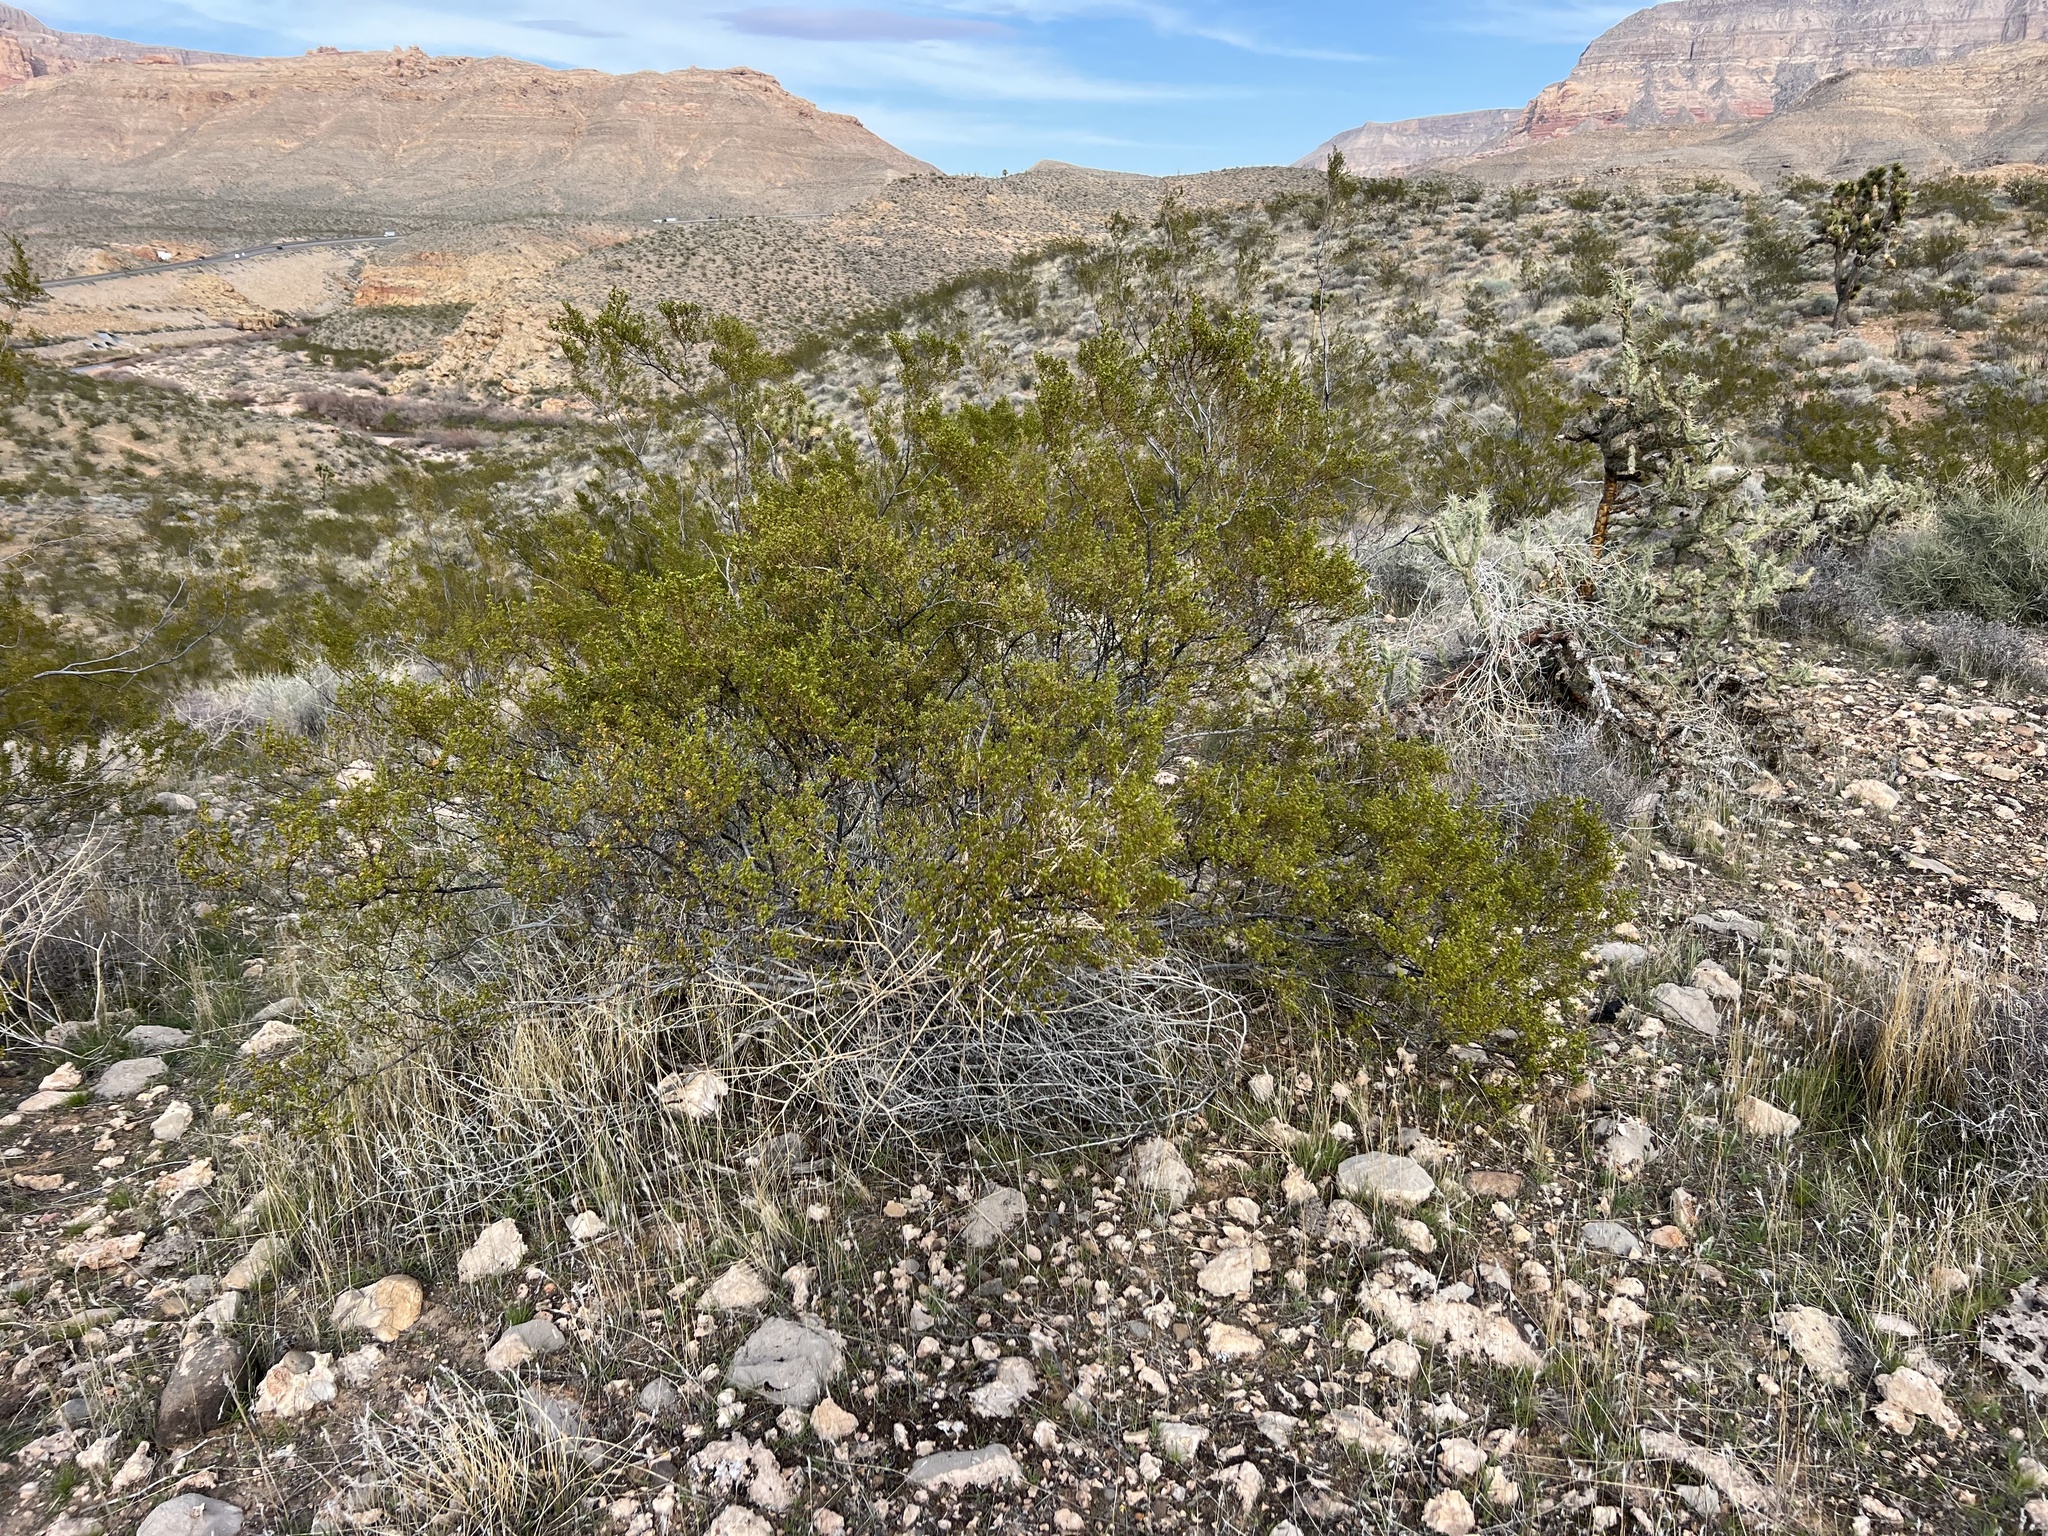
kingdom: Plantae
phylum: Tracheophyta
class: Magnoliopsida
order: Zygophyllales
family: Zygophyllaceae
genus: Larrea
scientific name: Larrea tridentata
